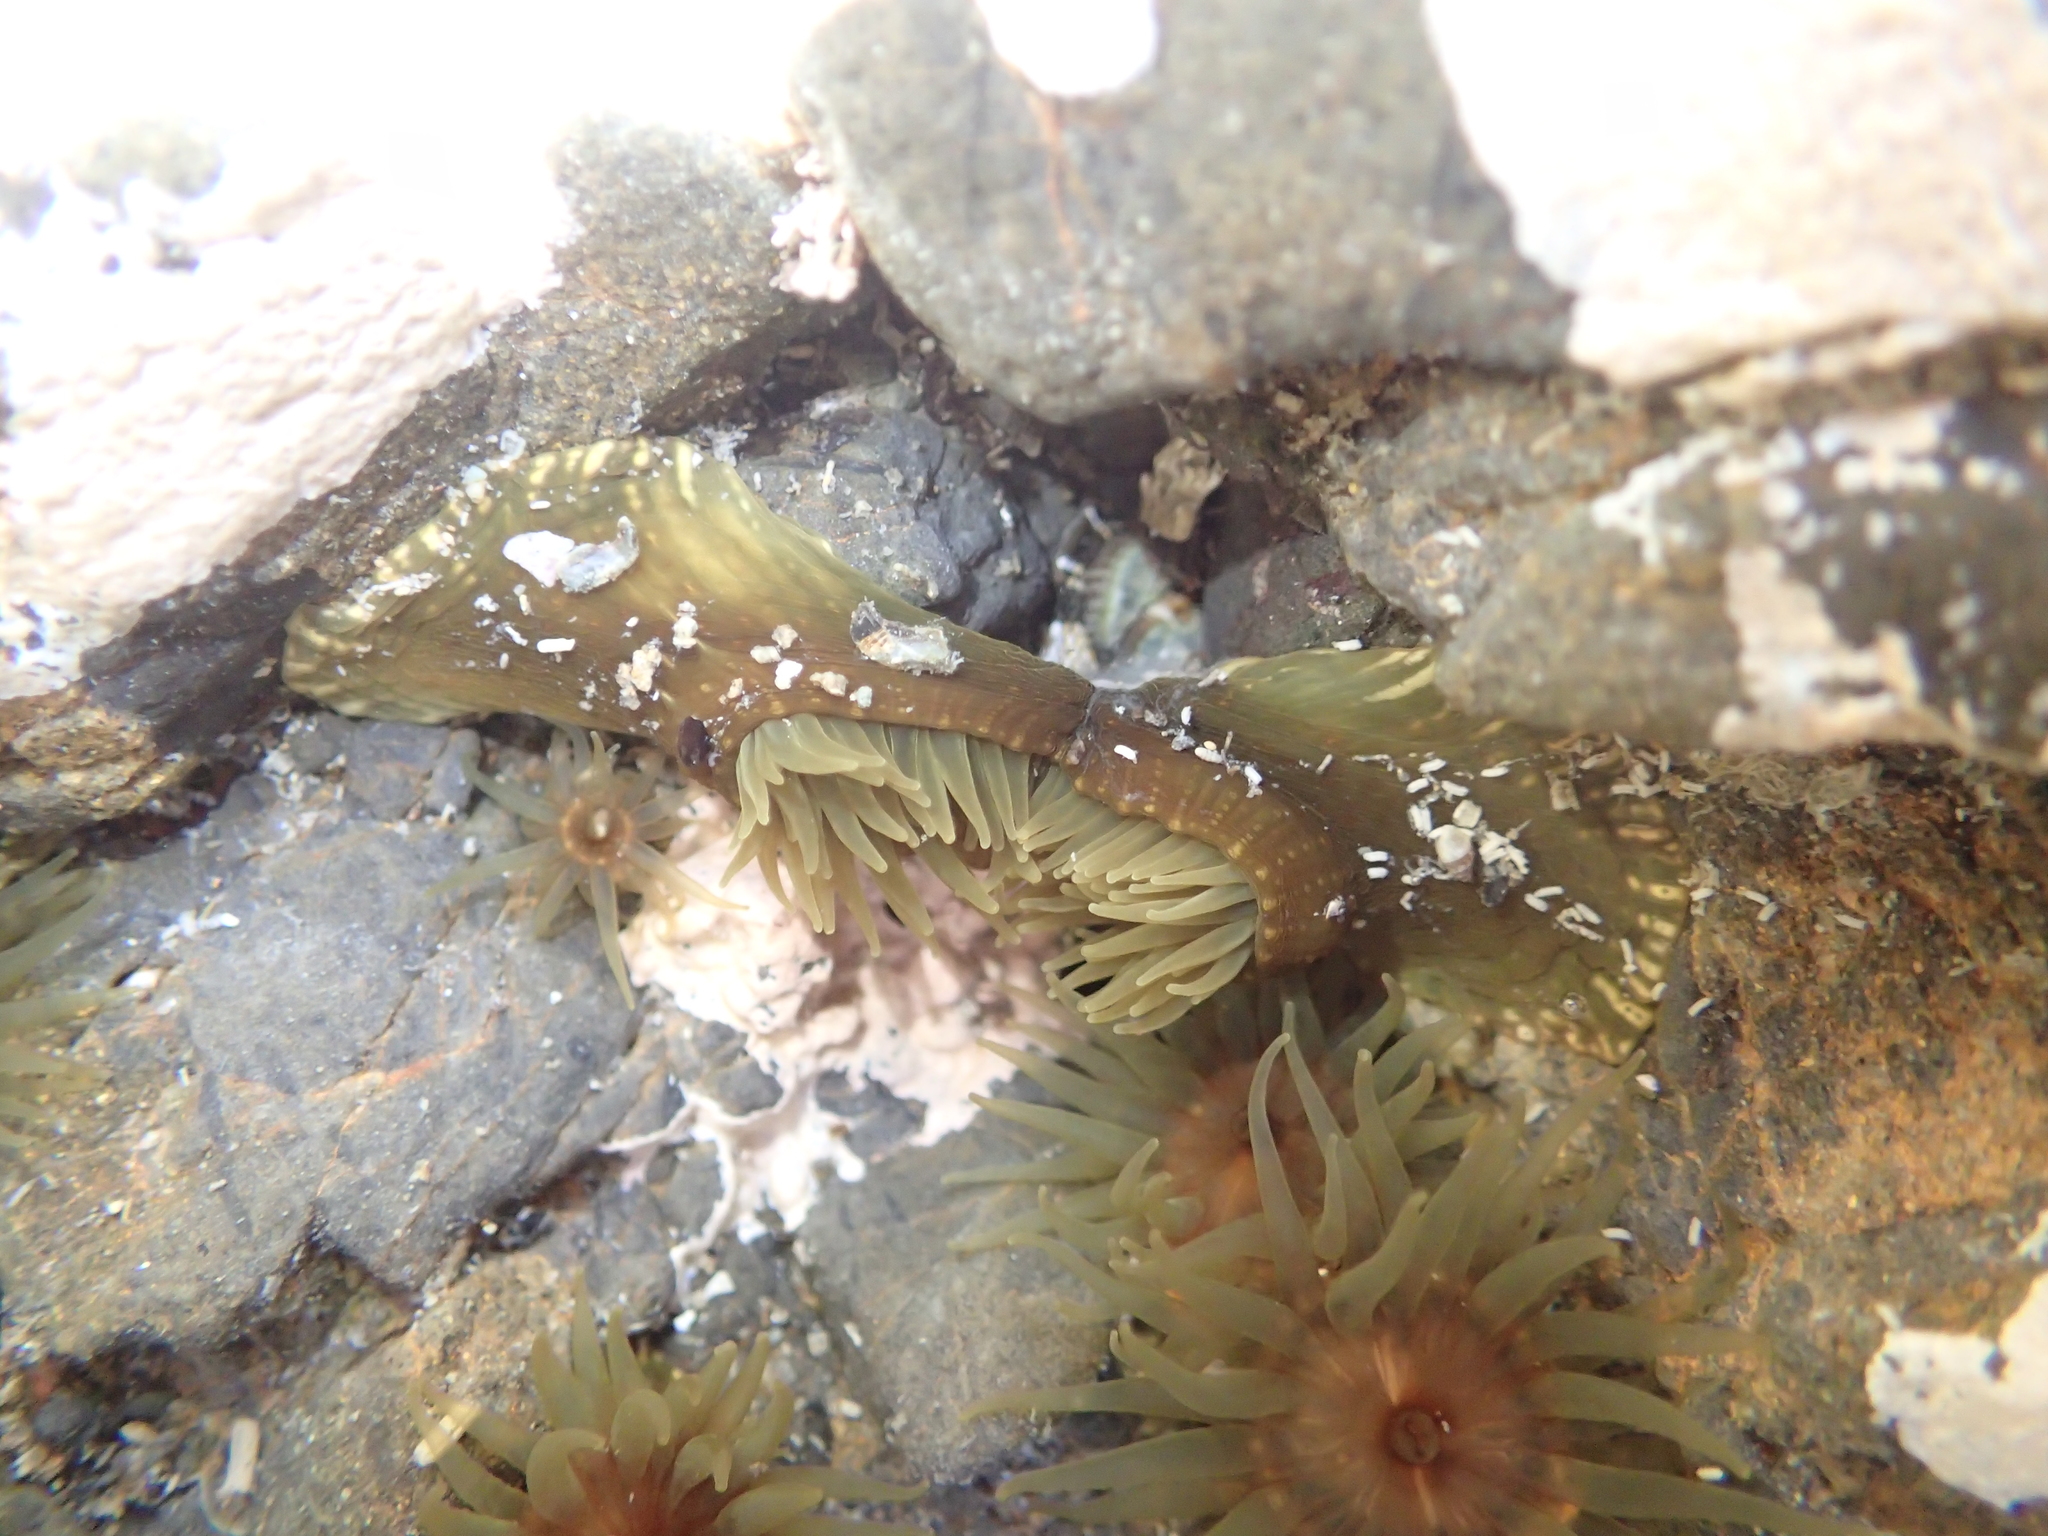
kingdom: Animalia
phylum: Cnidaria
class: Anthozoa
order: Actiniaria
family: Actiniidae
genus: Isactinia
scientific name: Isactinia olivacea
